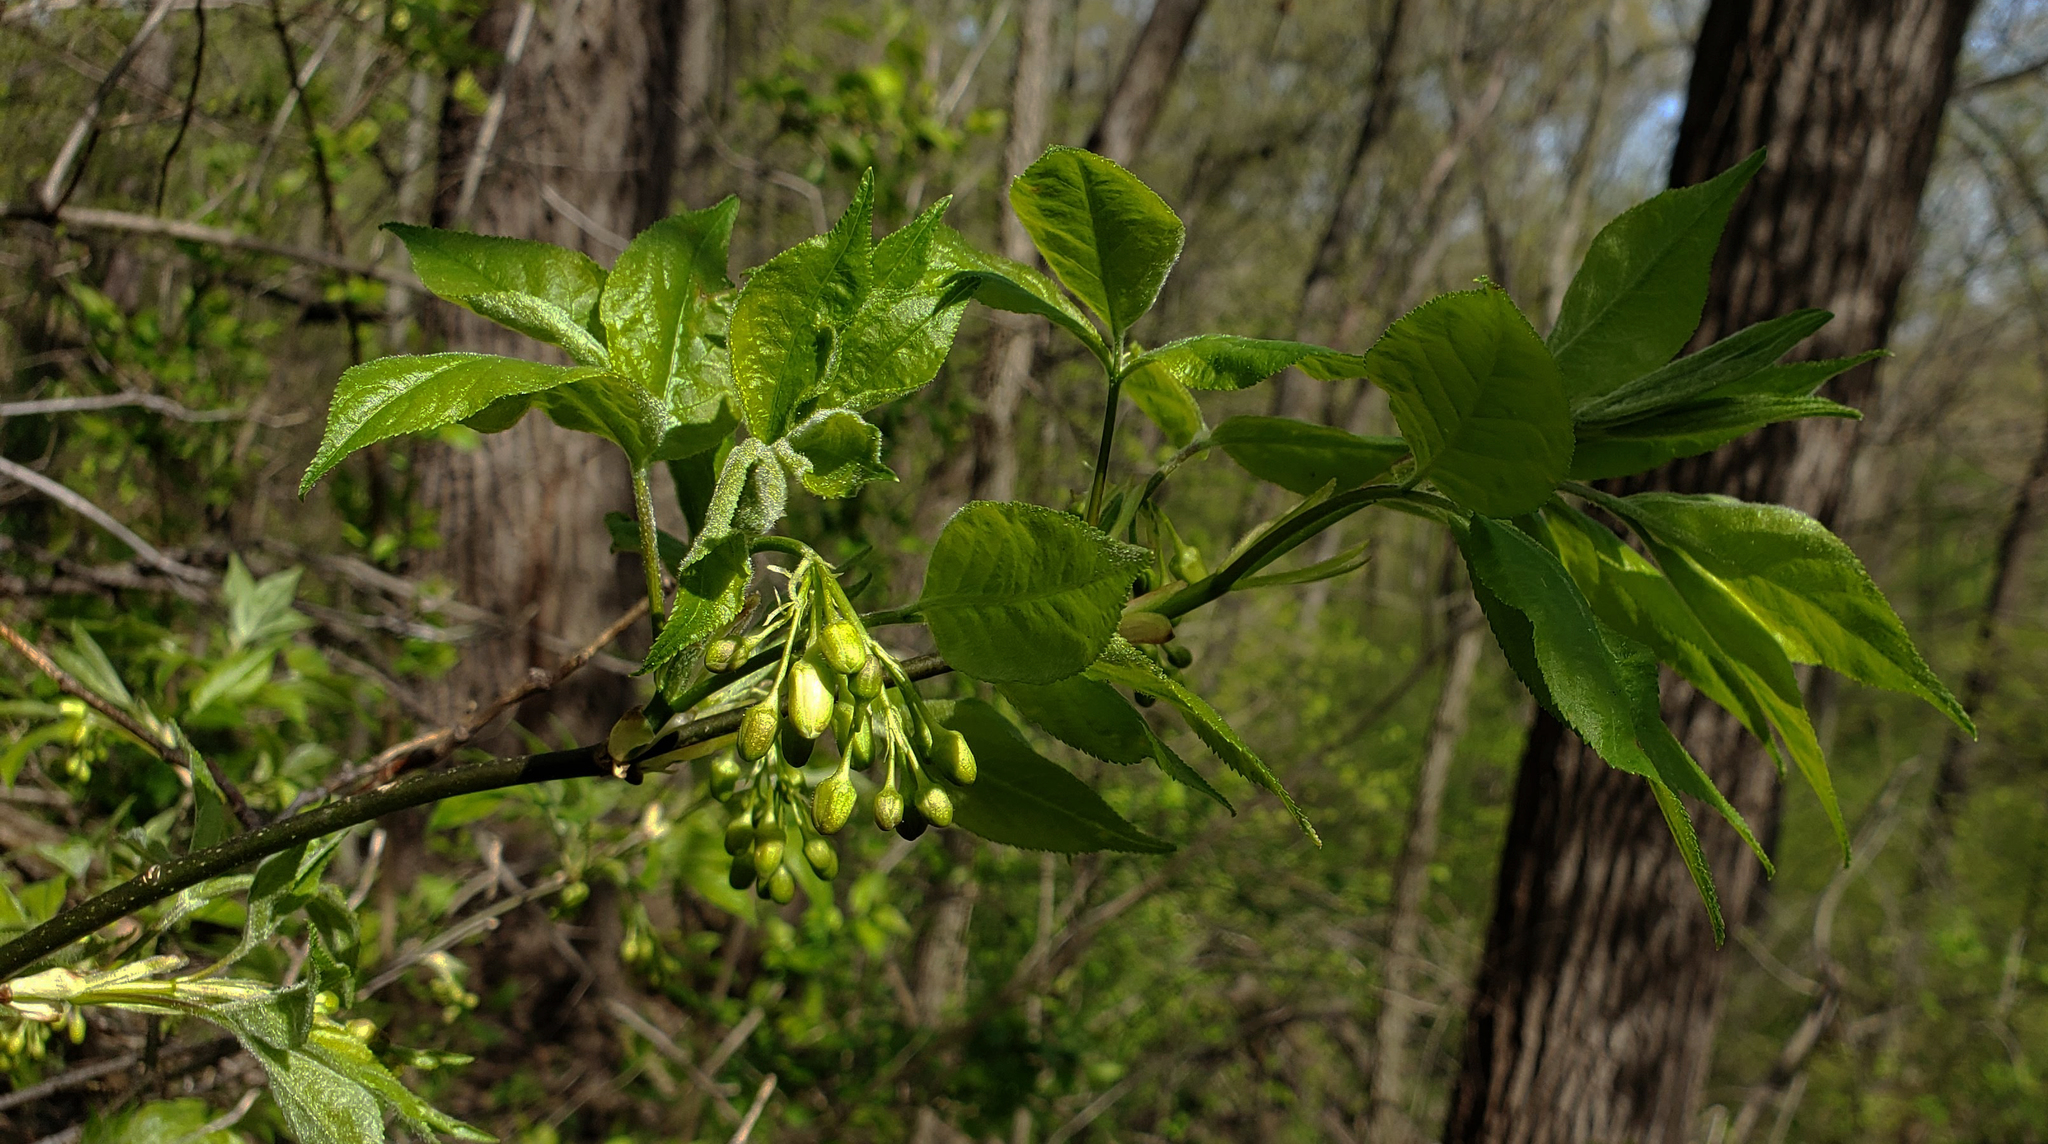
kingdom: Plantae
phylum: Tracheophyta
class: Magnoliopsida
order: Crossosomatales
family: Staphyleaceae
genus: Staphylea
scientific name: Staphylea trifolia
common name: American bladdernut
